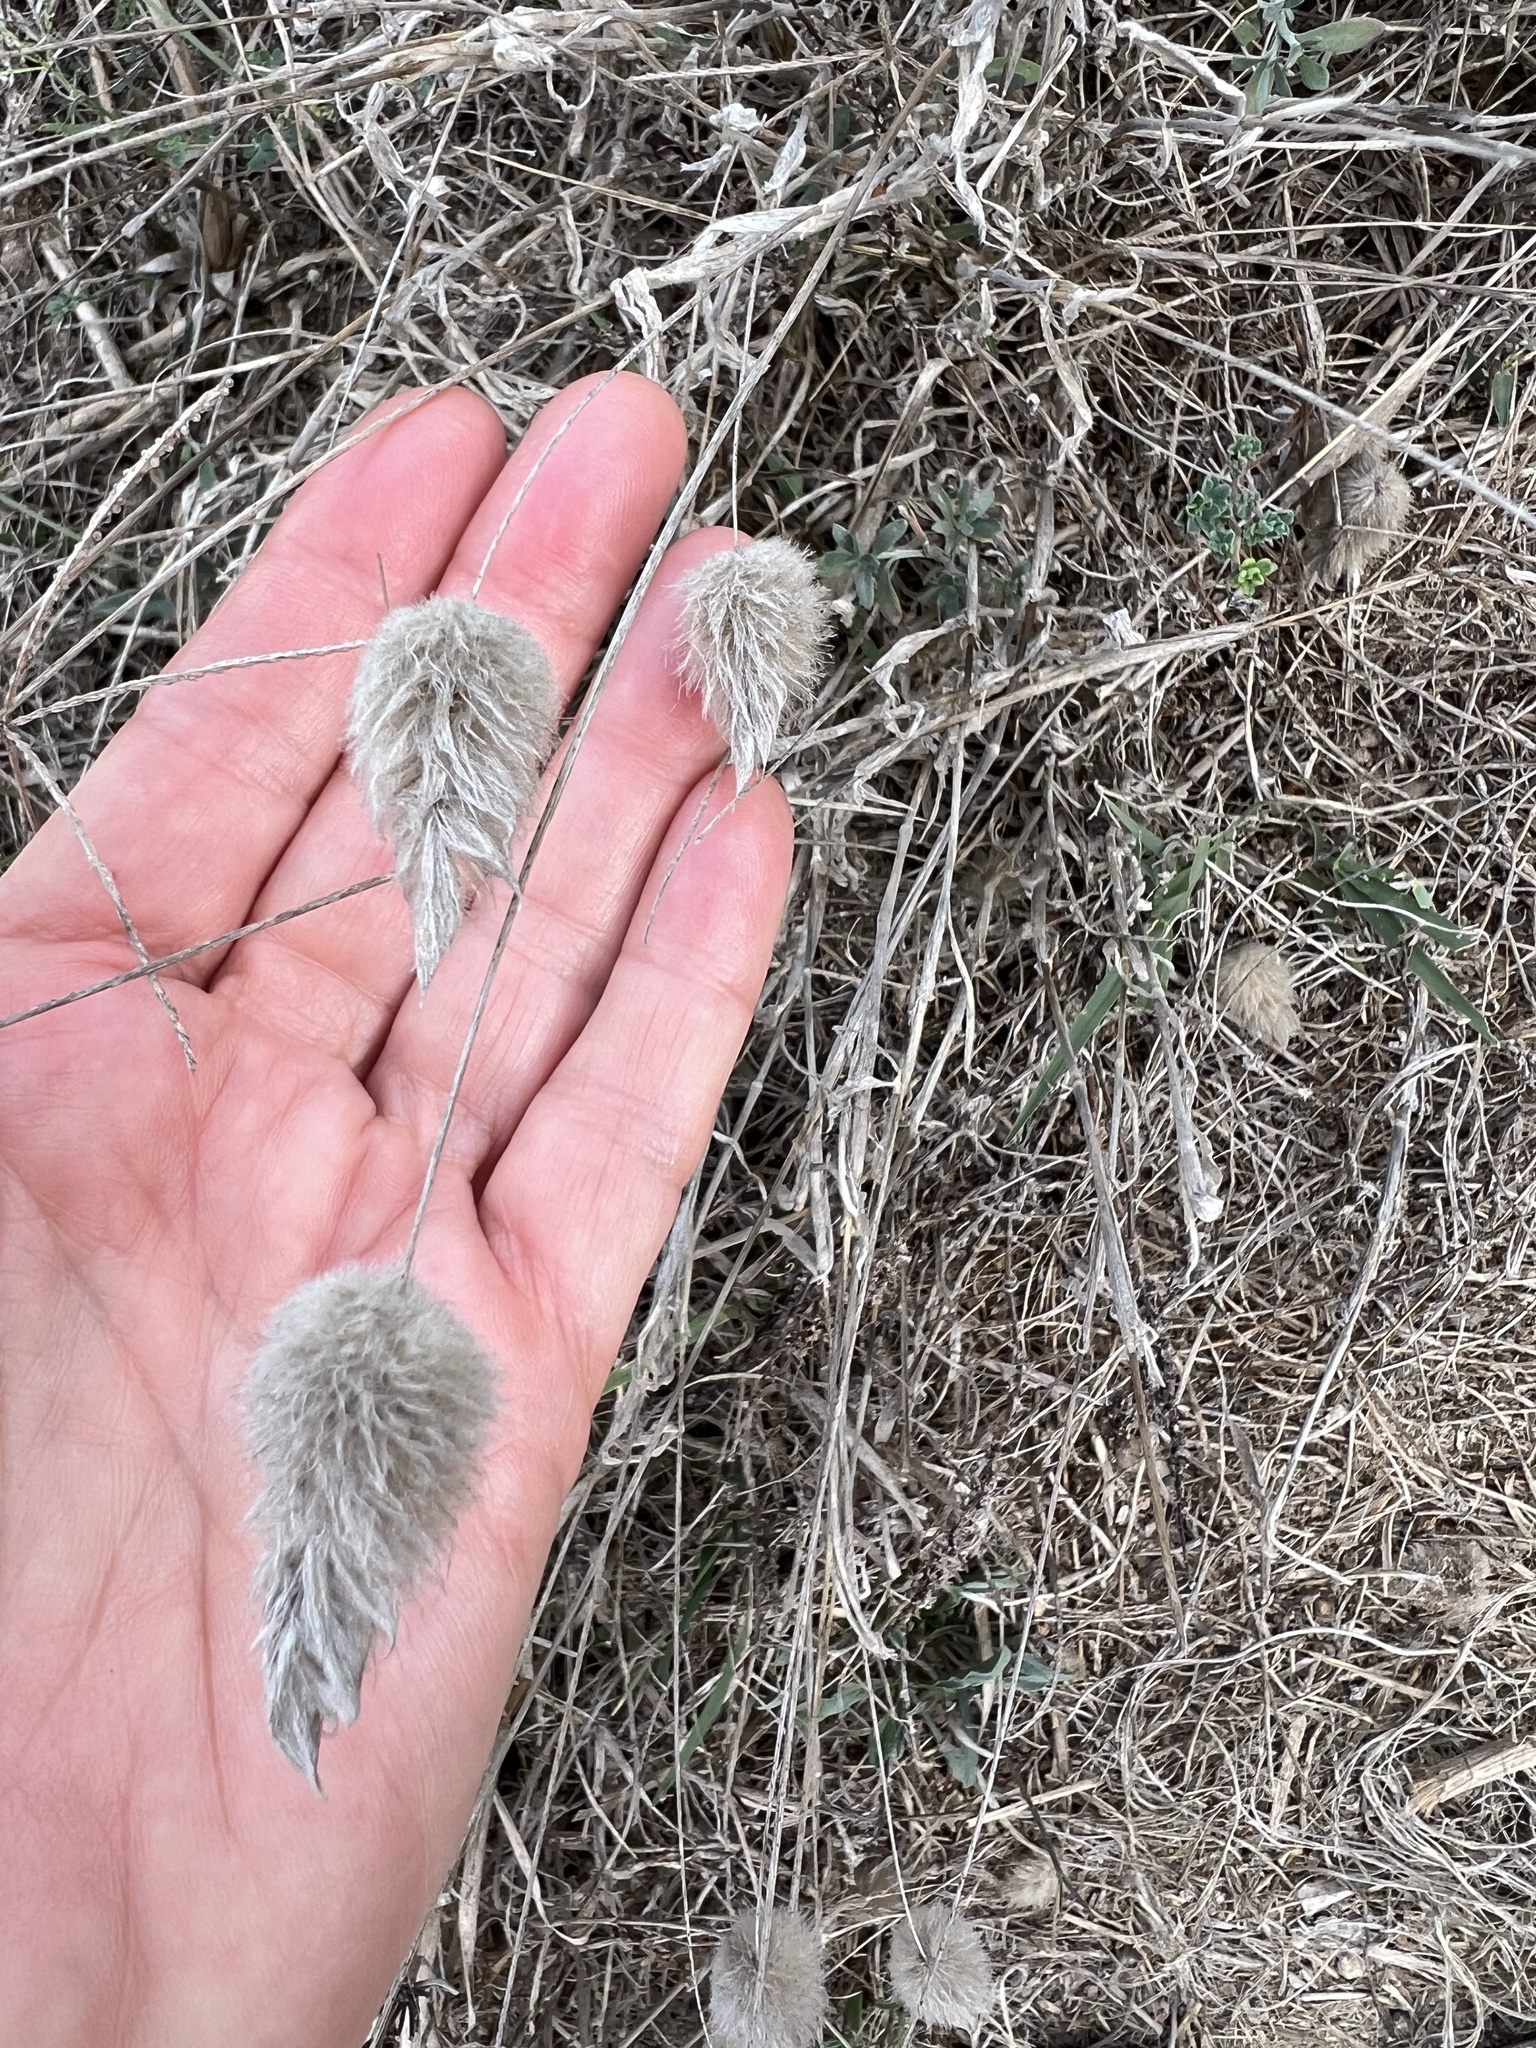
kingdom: Plantae
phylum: Tracheophyta
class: Liliopsida
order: Poales
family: Poaceae
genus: Lagurus
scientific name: Lagurus ovatus
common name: Hare's-tail
